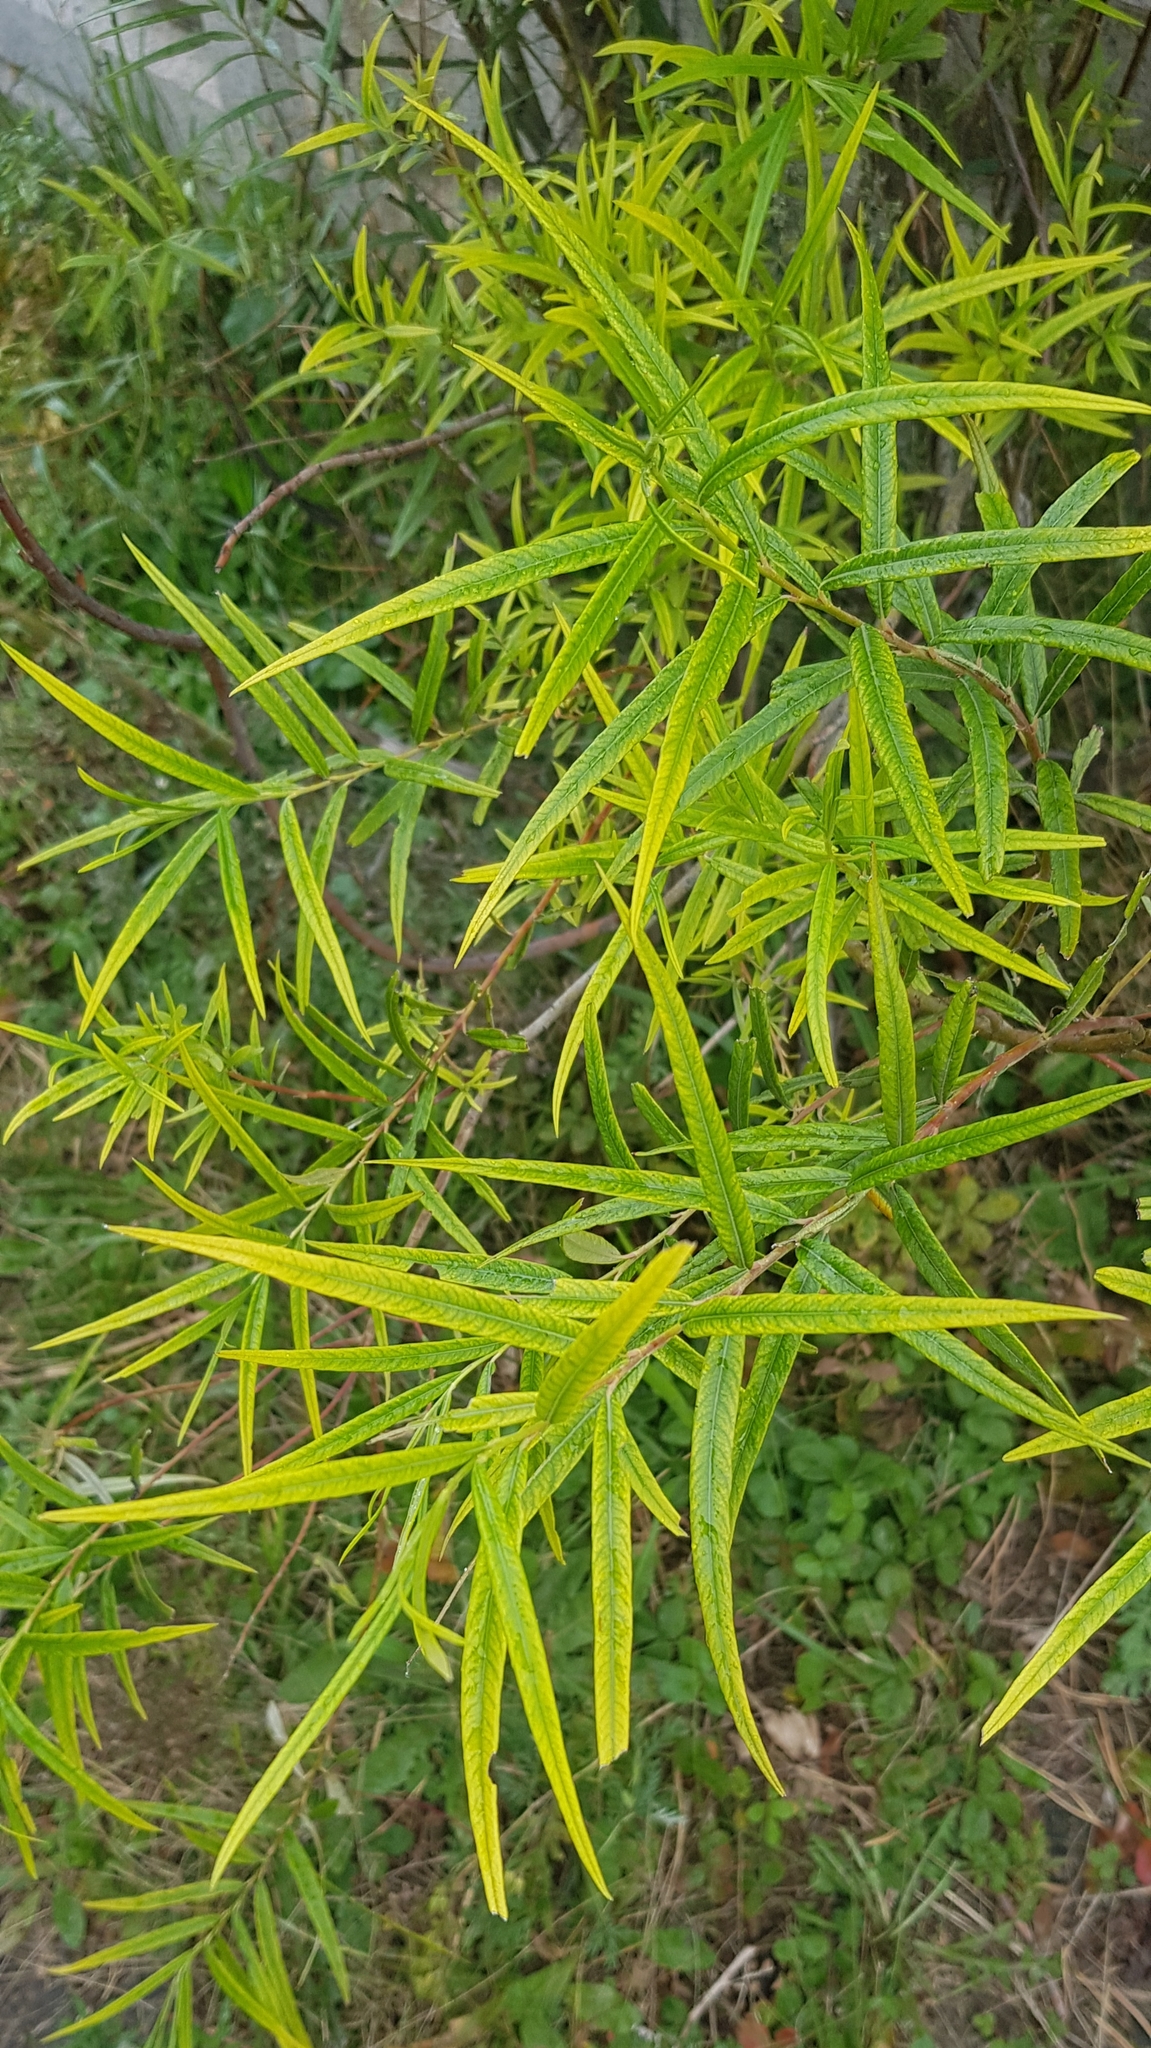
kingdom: Plantae
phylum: Tracheophyta
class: Magnoliopsida
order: Malpighiales
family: Salicaceae
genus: Salix
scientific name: Salix viminalis
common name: Osier
